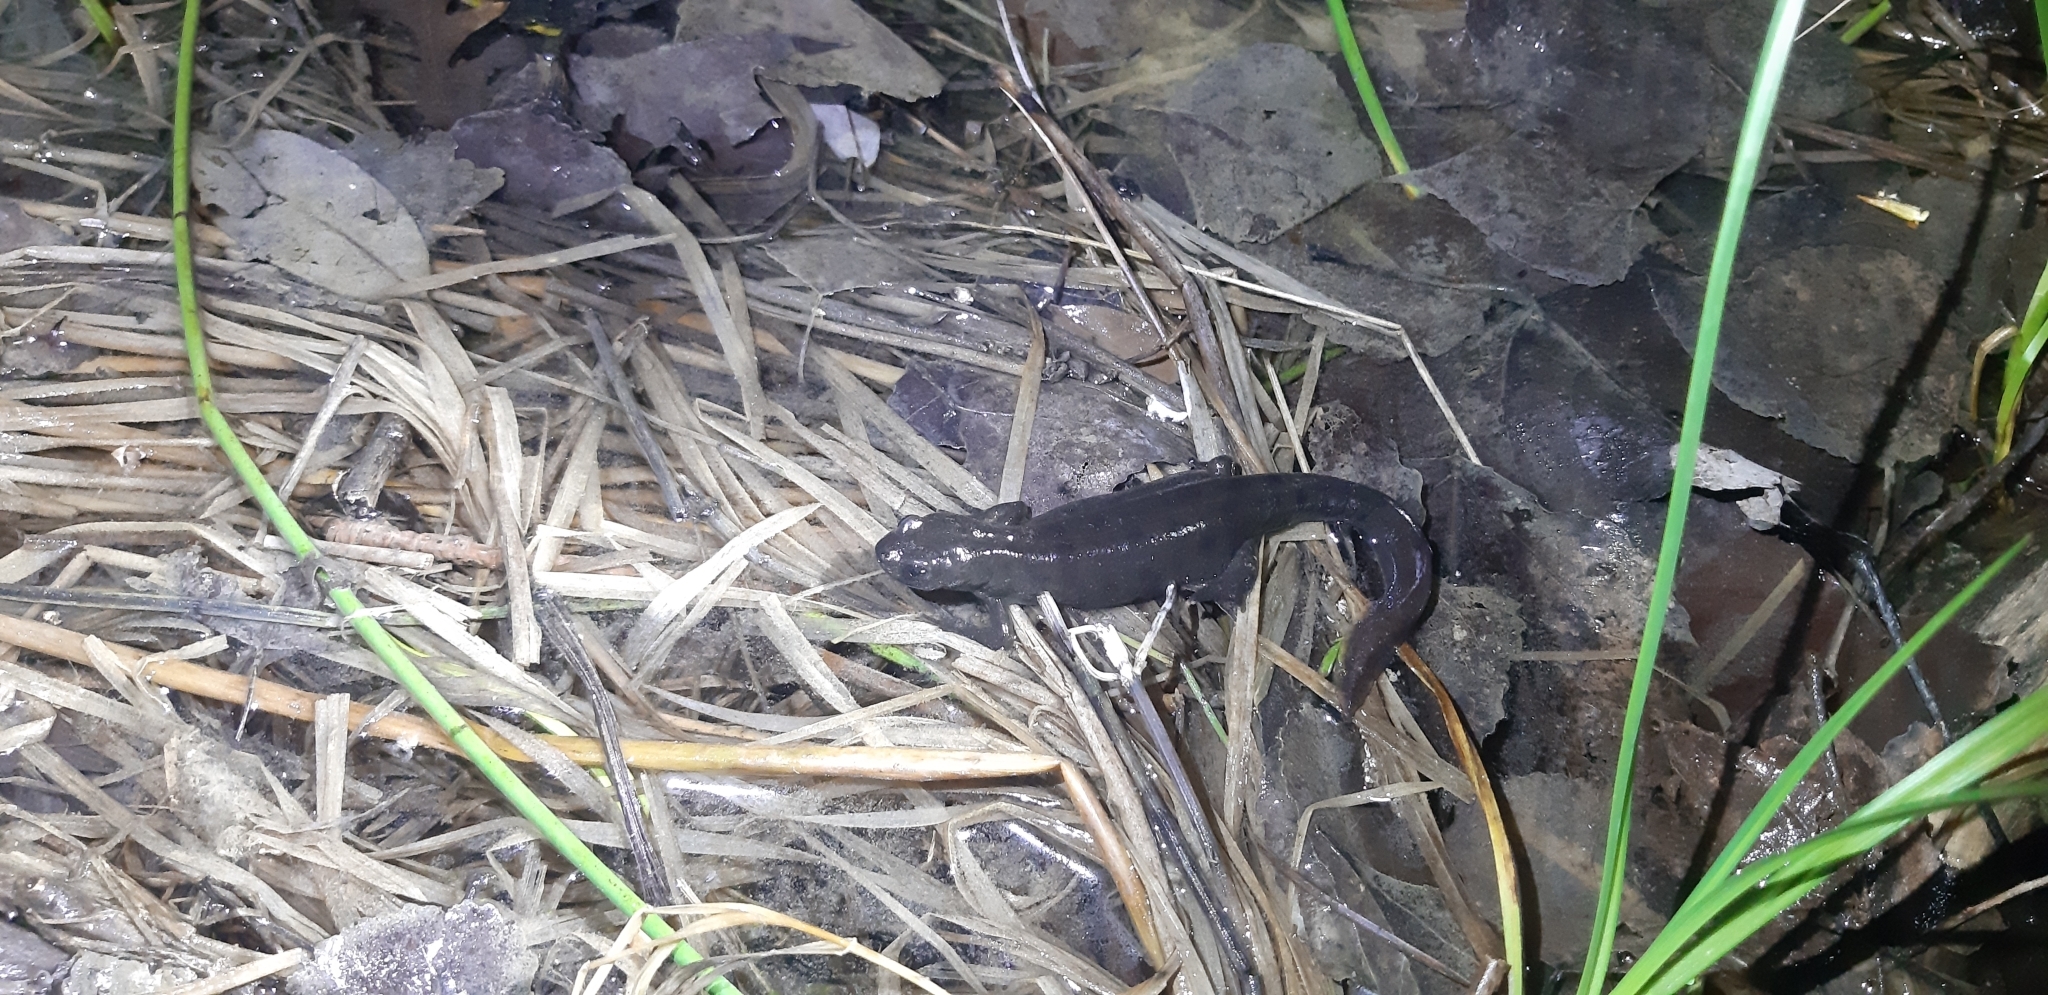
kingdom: Animalia
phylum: Chordata
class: Amphibia
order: Caudata
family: Salamandridae
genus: Triturus
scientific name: Triturus carnifex
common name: Italian crested newt
